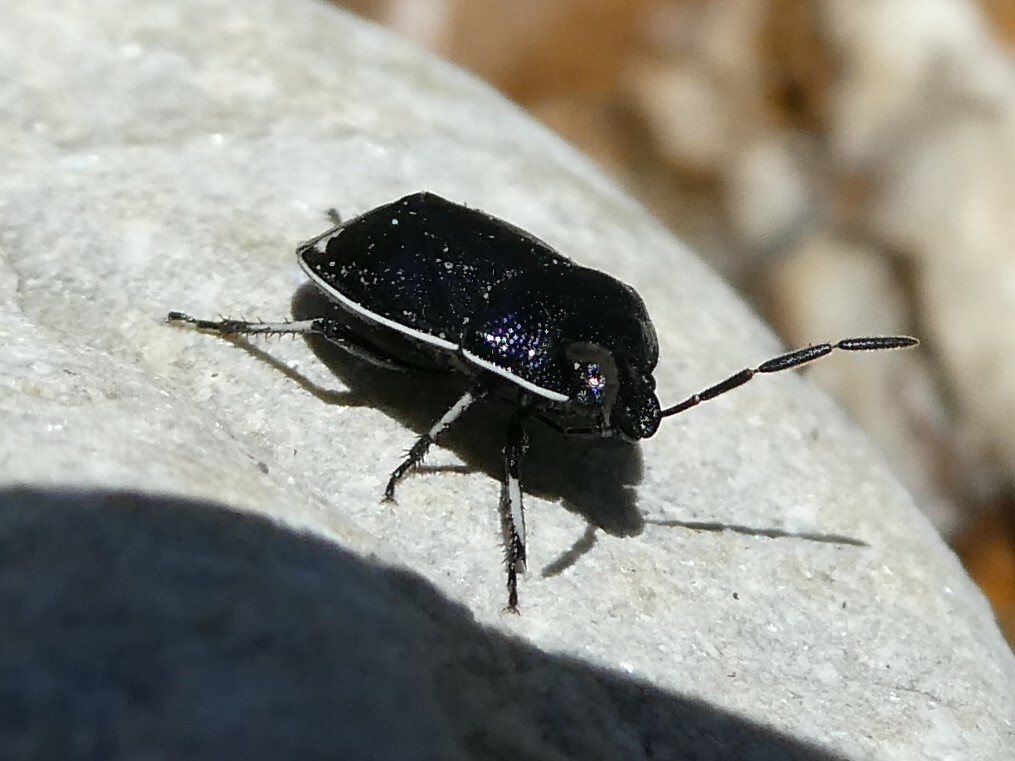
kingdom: Animalia
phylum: Arthropoda
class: Insecta
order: Hemiptera
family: Cydnidae
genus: Sehirus
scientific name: Sehirus cinctus
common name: White-margined burrower bug
